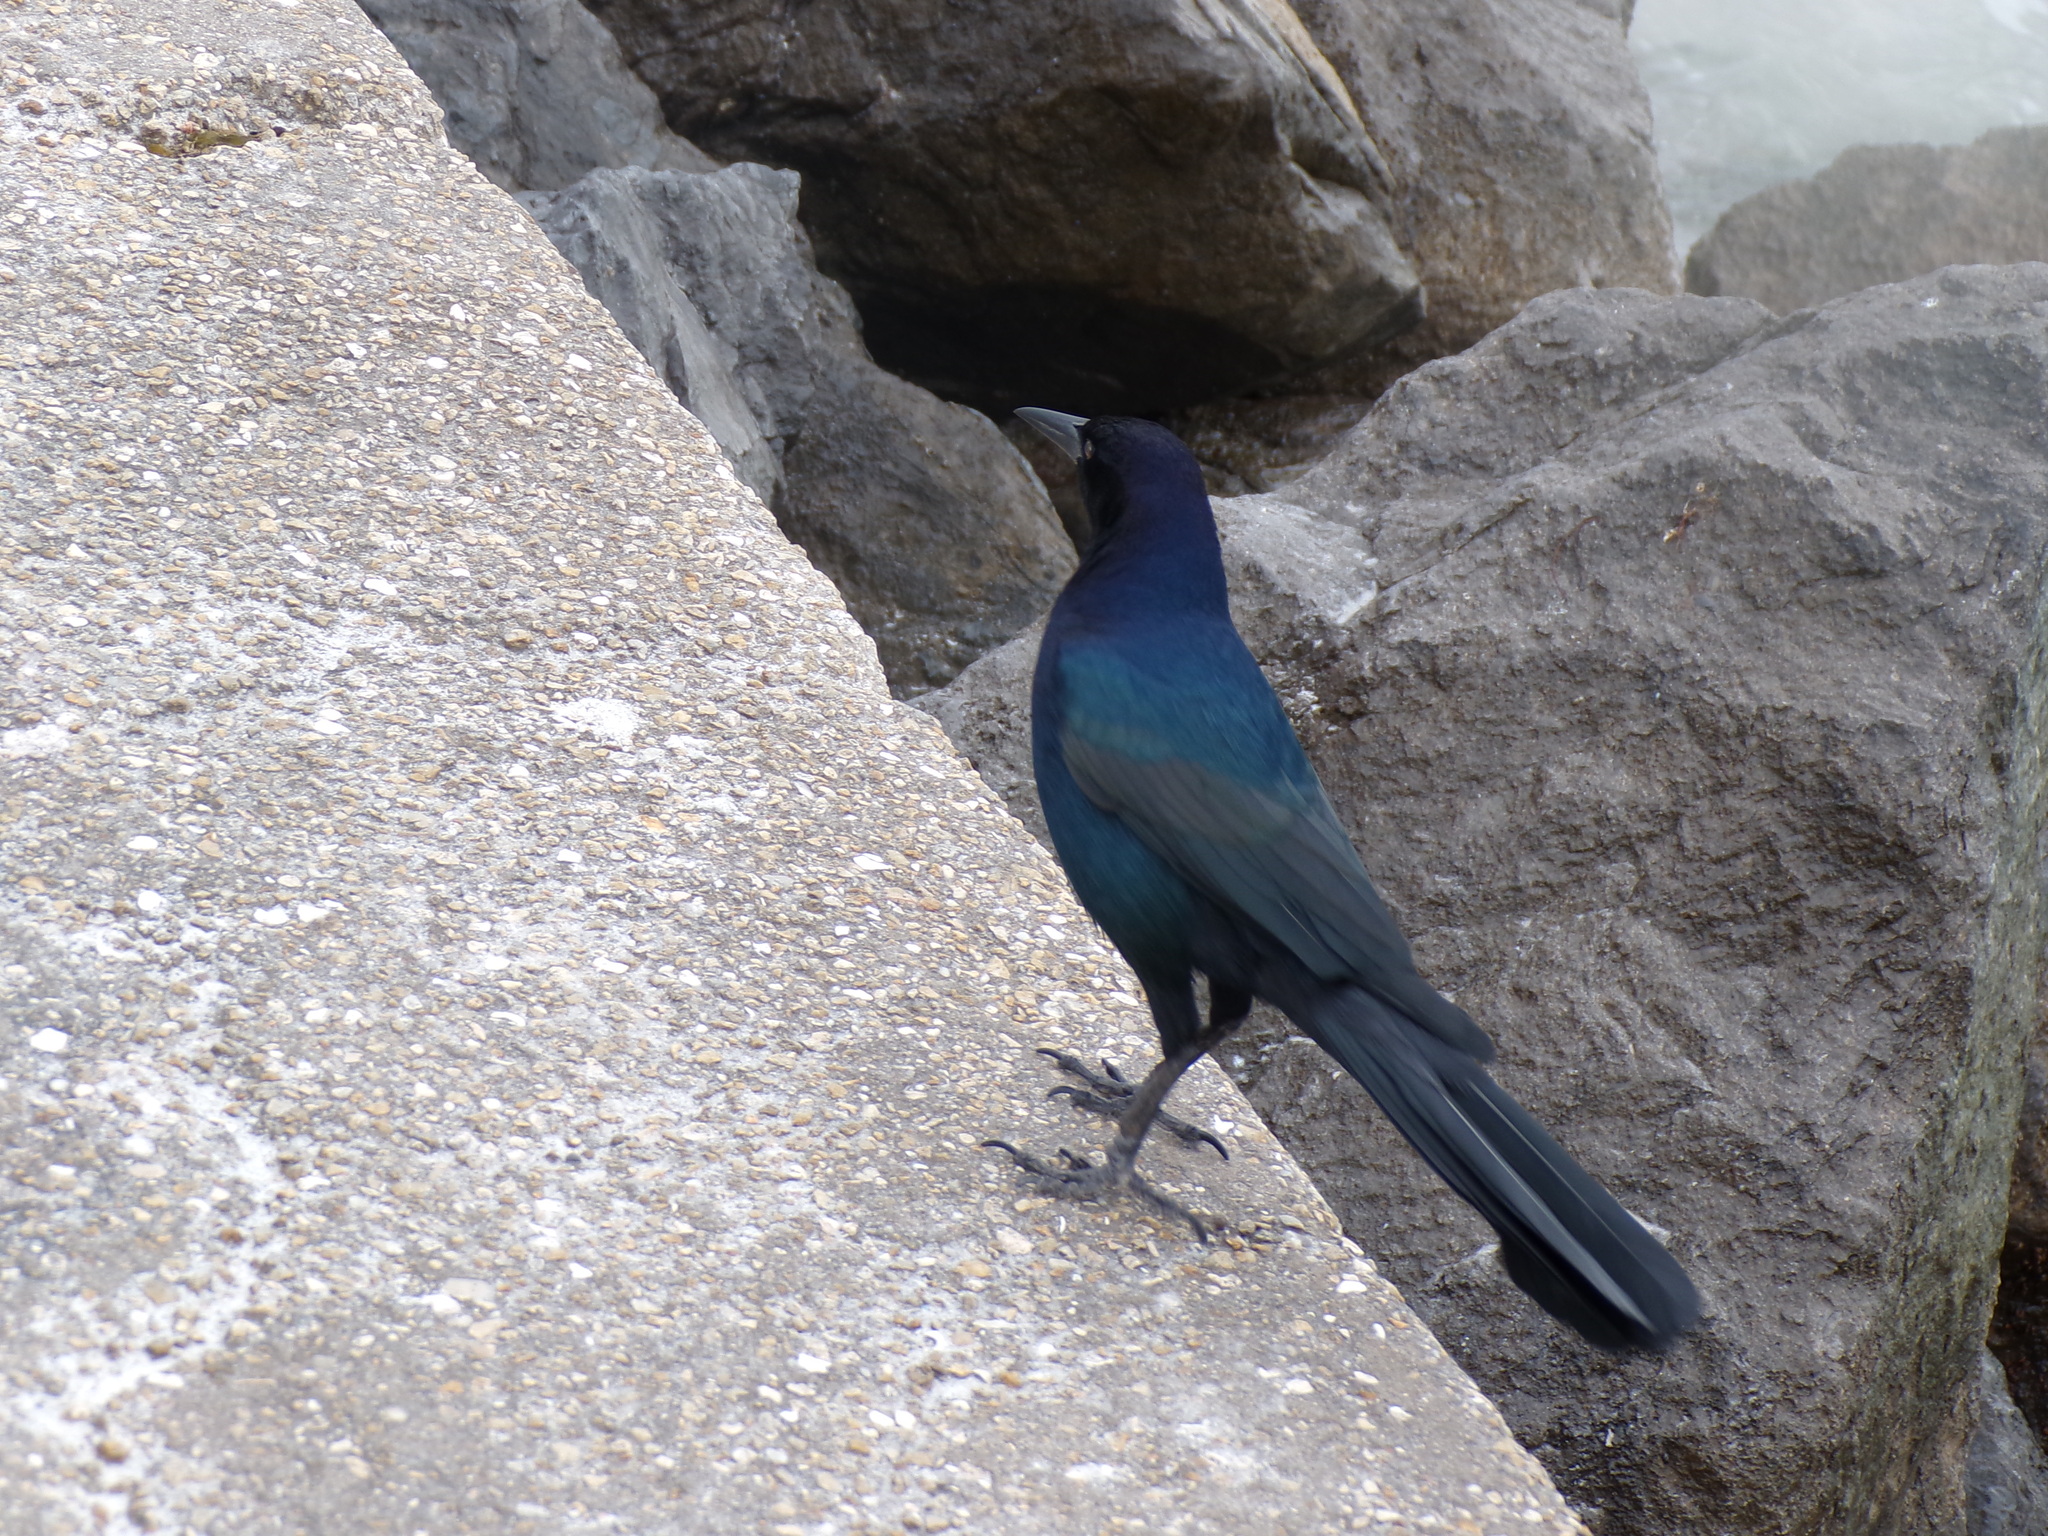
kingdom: Animalia
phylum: Chordata
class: Aves
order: Passeriformes
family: Icteridae
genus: Quiscalus
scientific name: Quiscalus major
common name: Boat-tailed grackle
